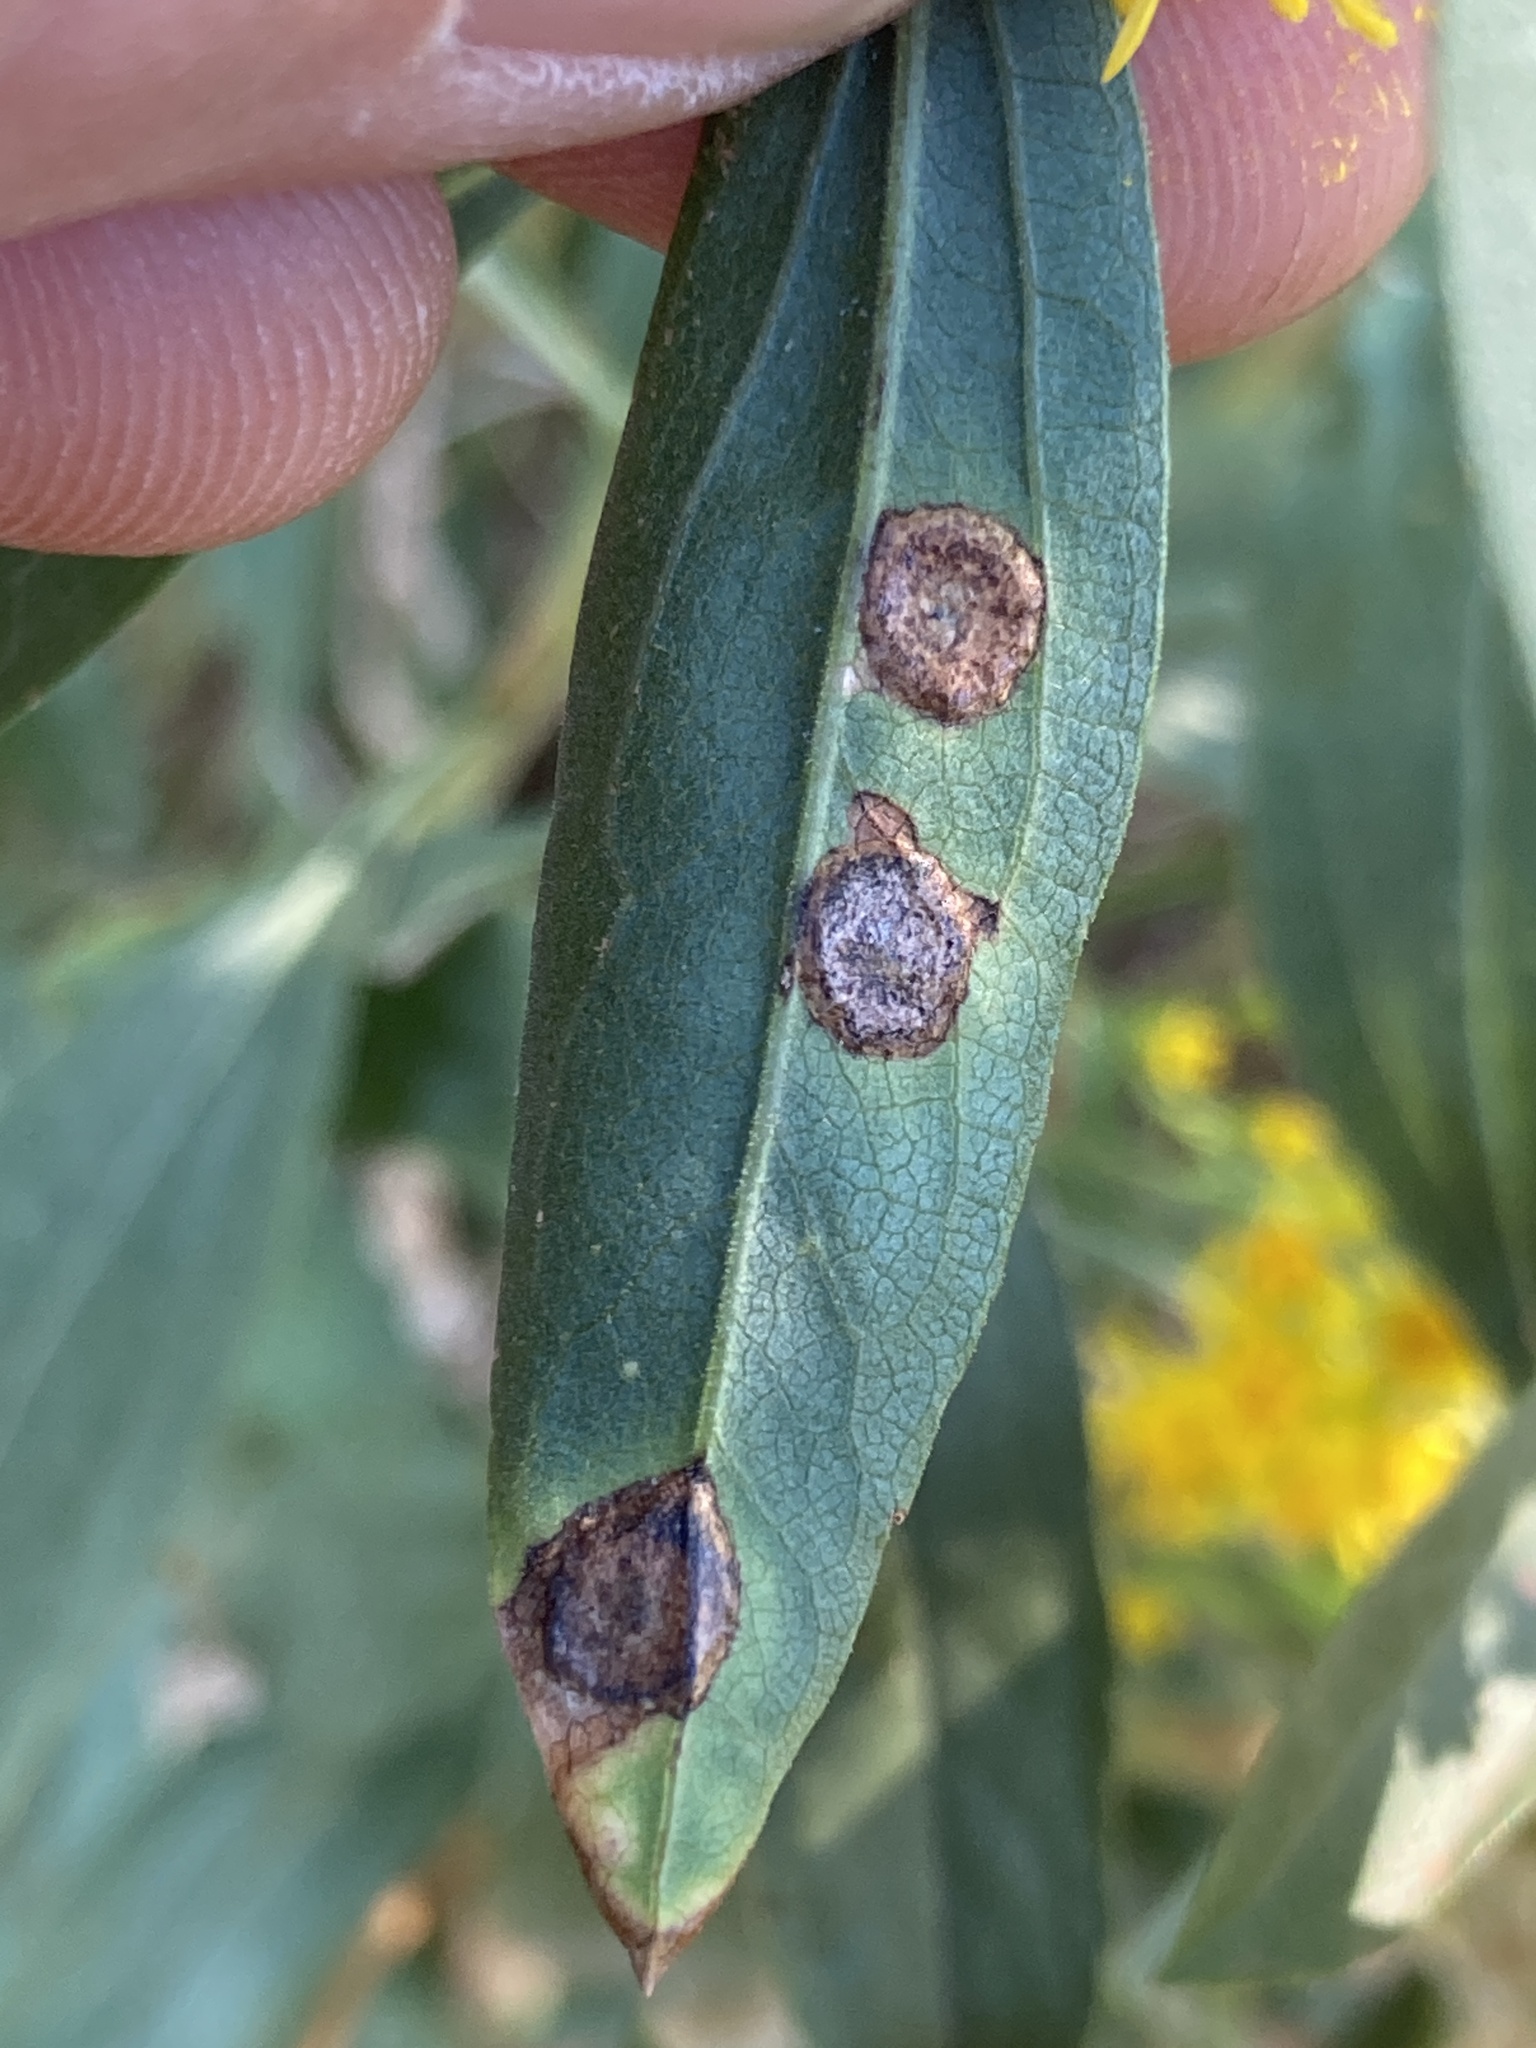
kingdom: Animalia
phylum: Arthropoda
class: Insecta
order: Diptera
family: Cecidomyiidae
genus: Asteromyia
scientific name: Asteromyia carbonifera
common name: Carbonifera goldenrod gall midge
